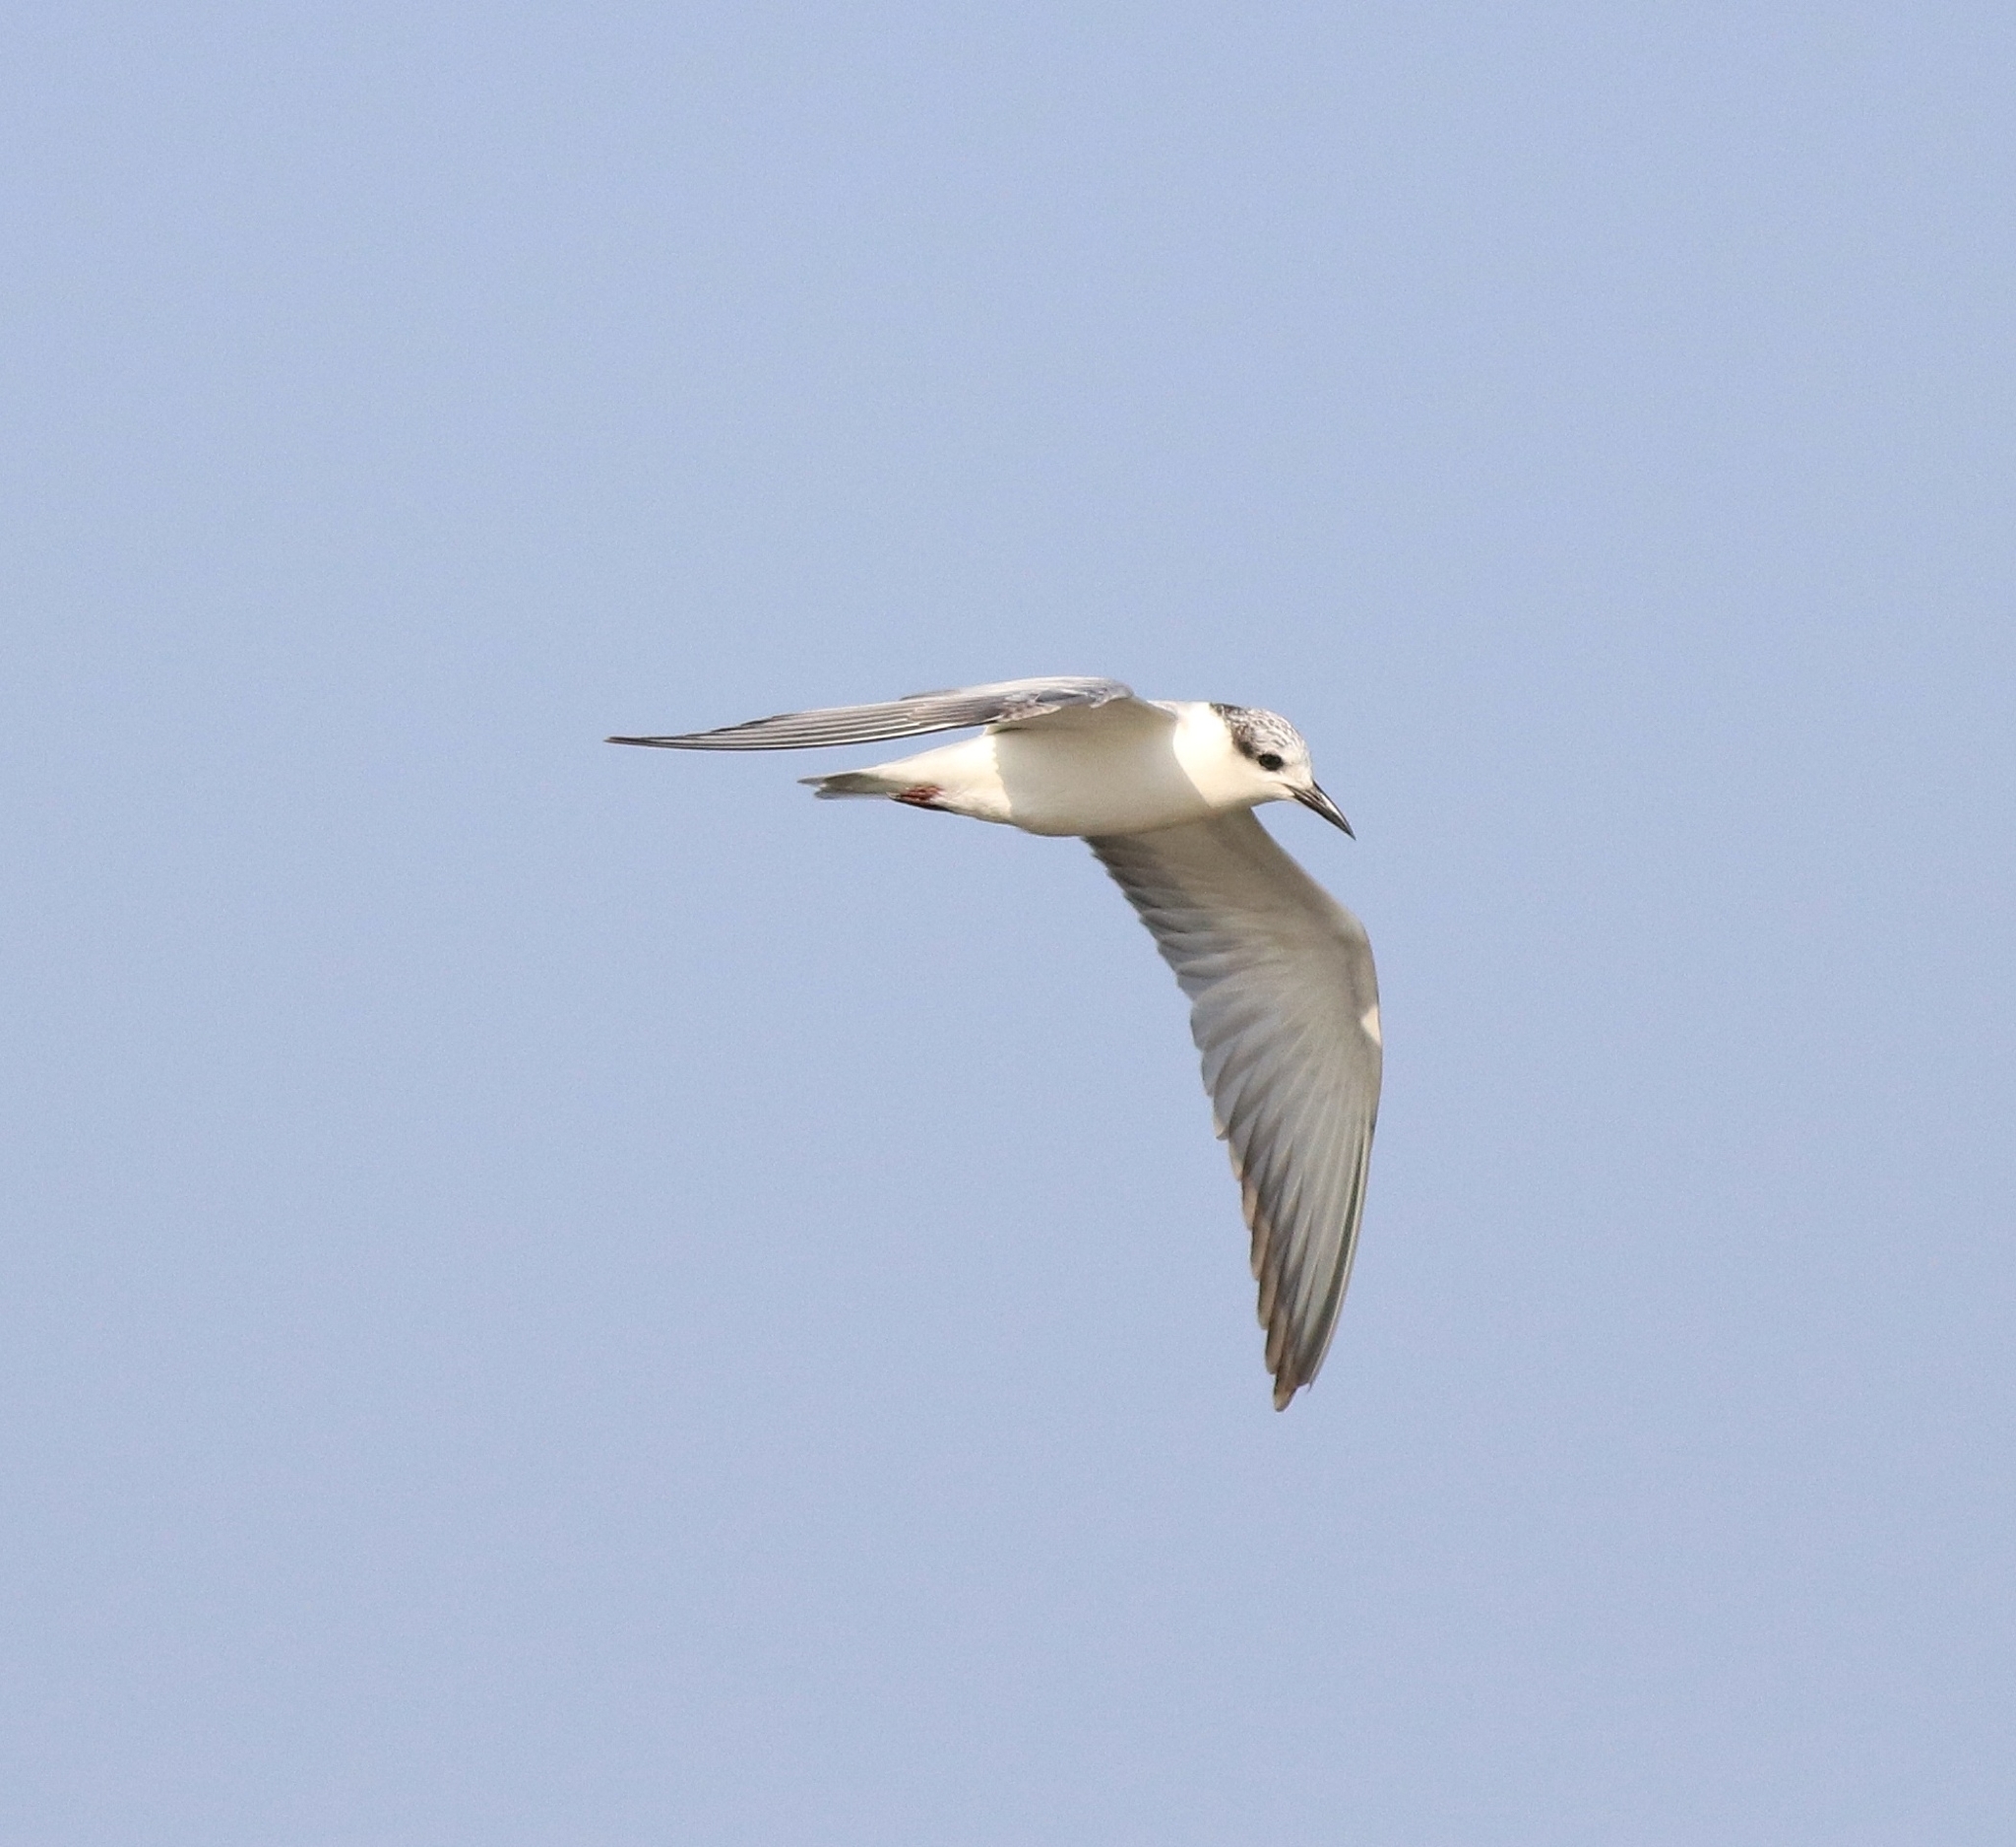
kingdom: Animalia
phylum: Chordata
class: Aves
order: Charadriiformes
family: Laridae
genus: Chlidonias
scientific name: Chlidonias hybrida
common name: Whiskered tern
